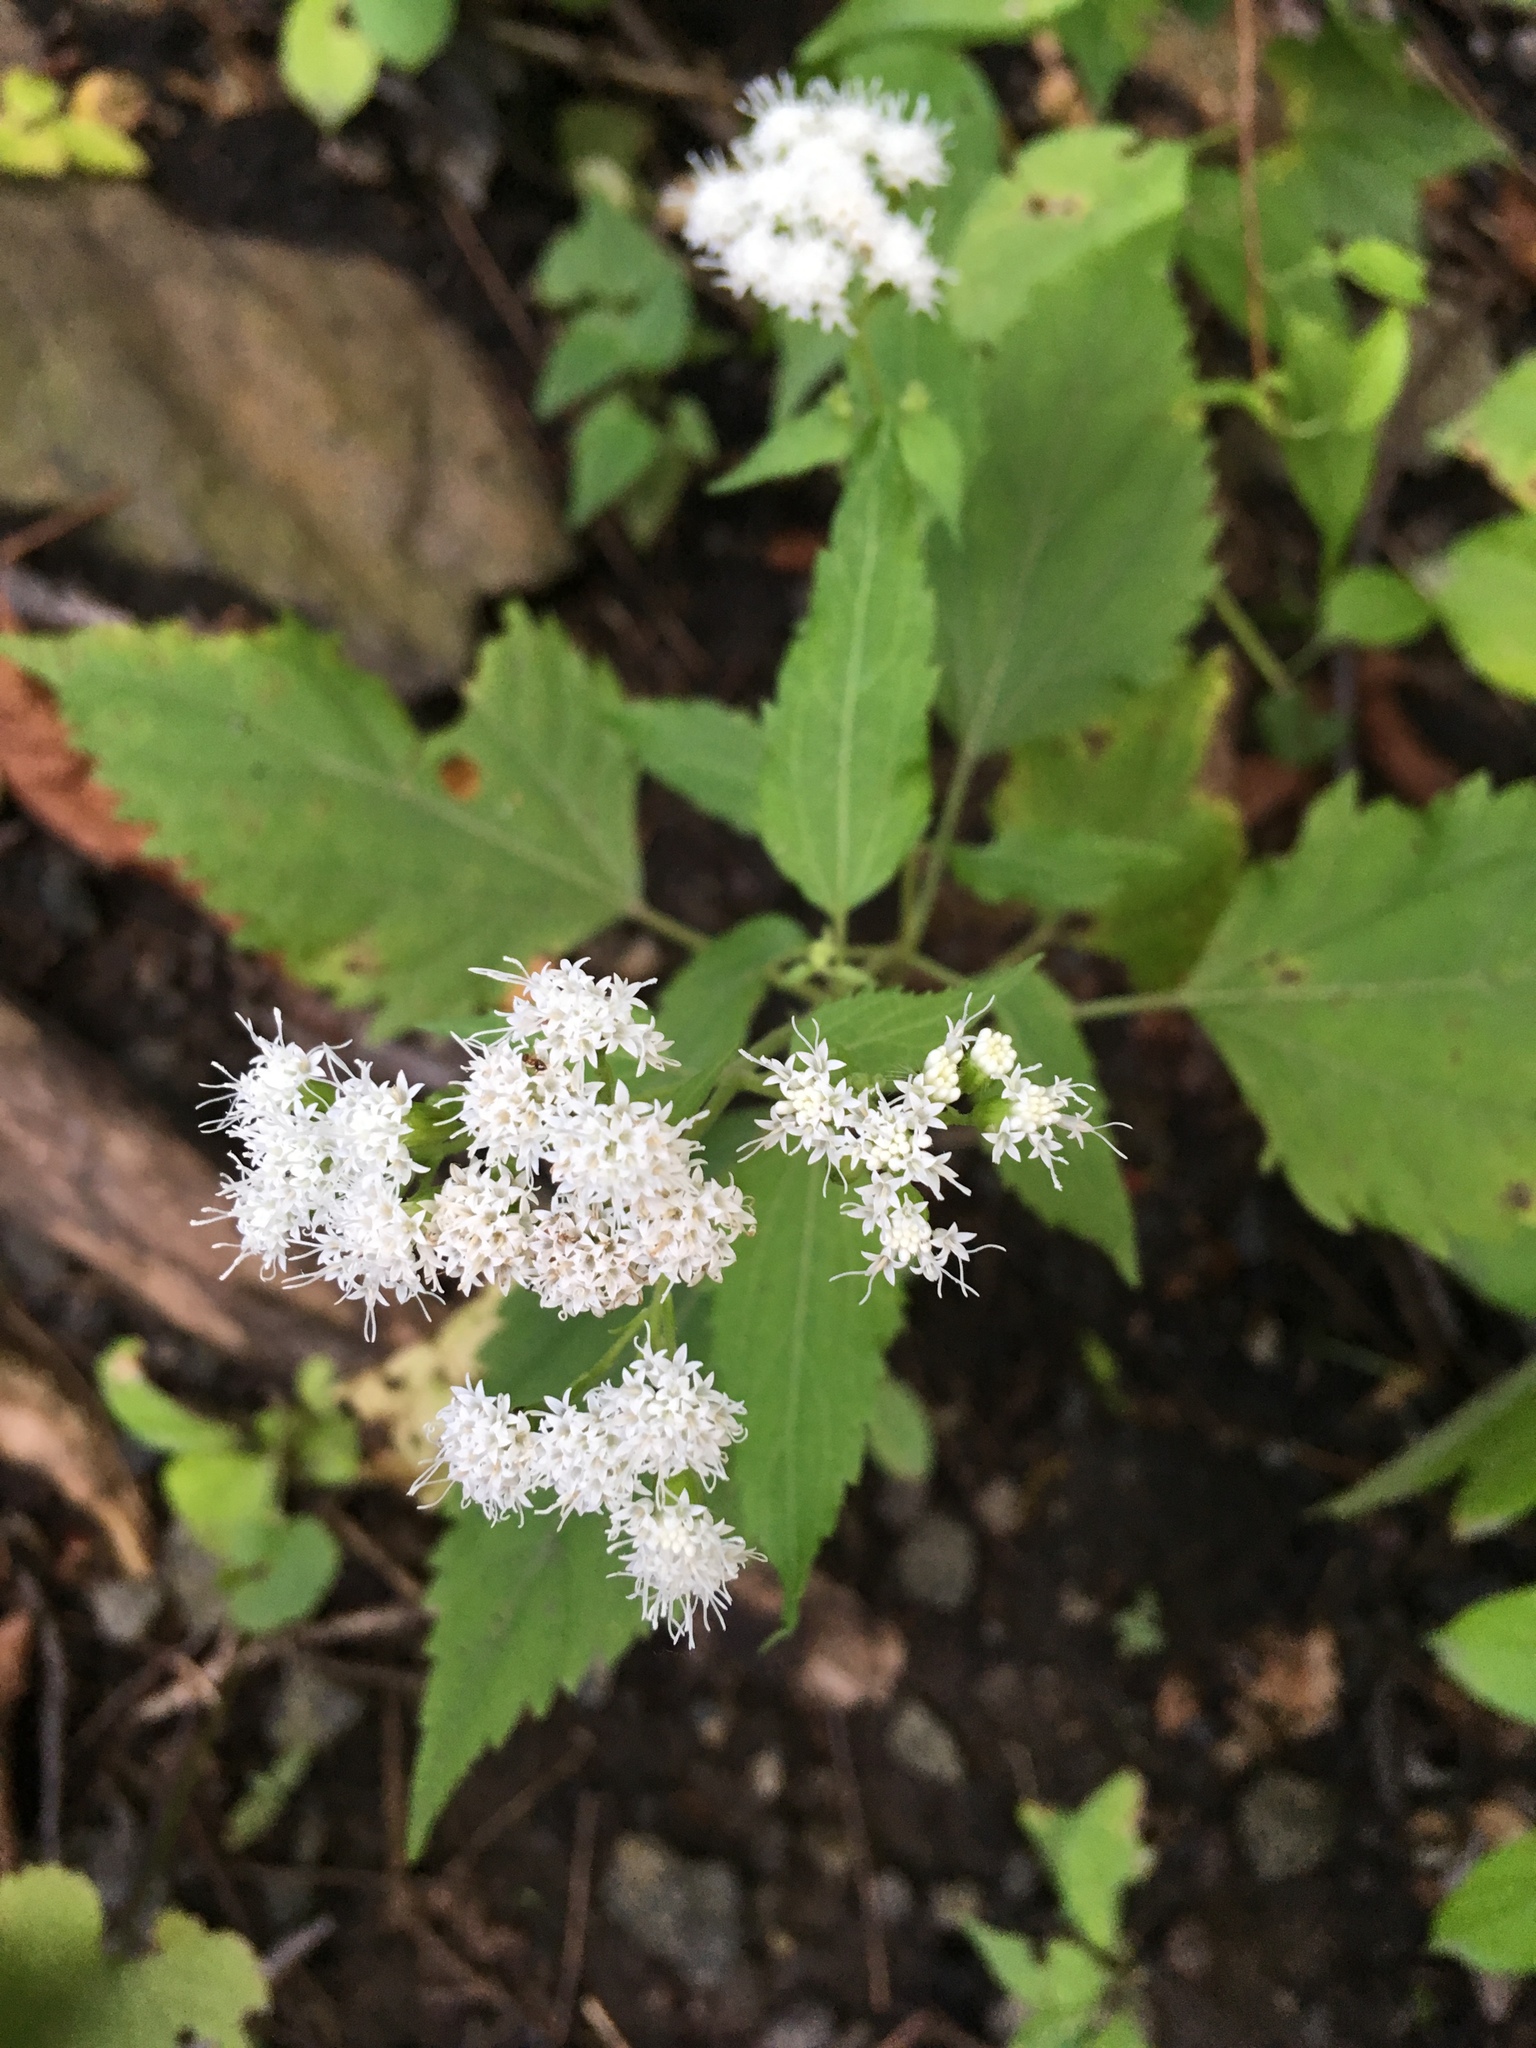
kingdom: Plantae
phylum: Tracheophyta
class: Magnoliopsida
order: Asterales
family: Asteraceae
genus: Ageratina
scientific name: Ageratina altissima
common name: White snakeroot
